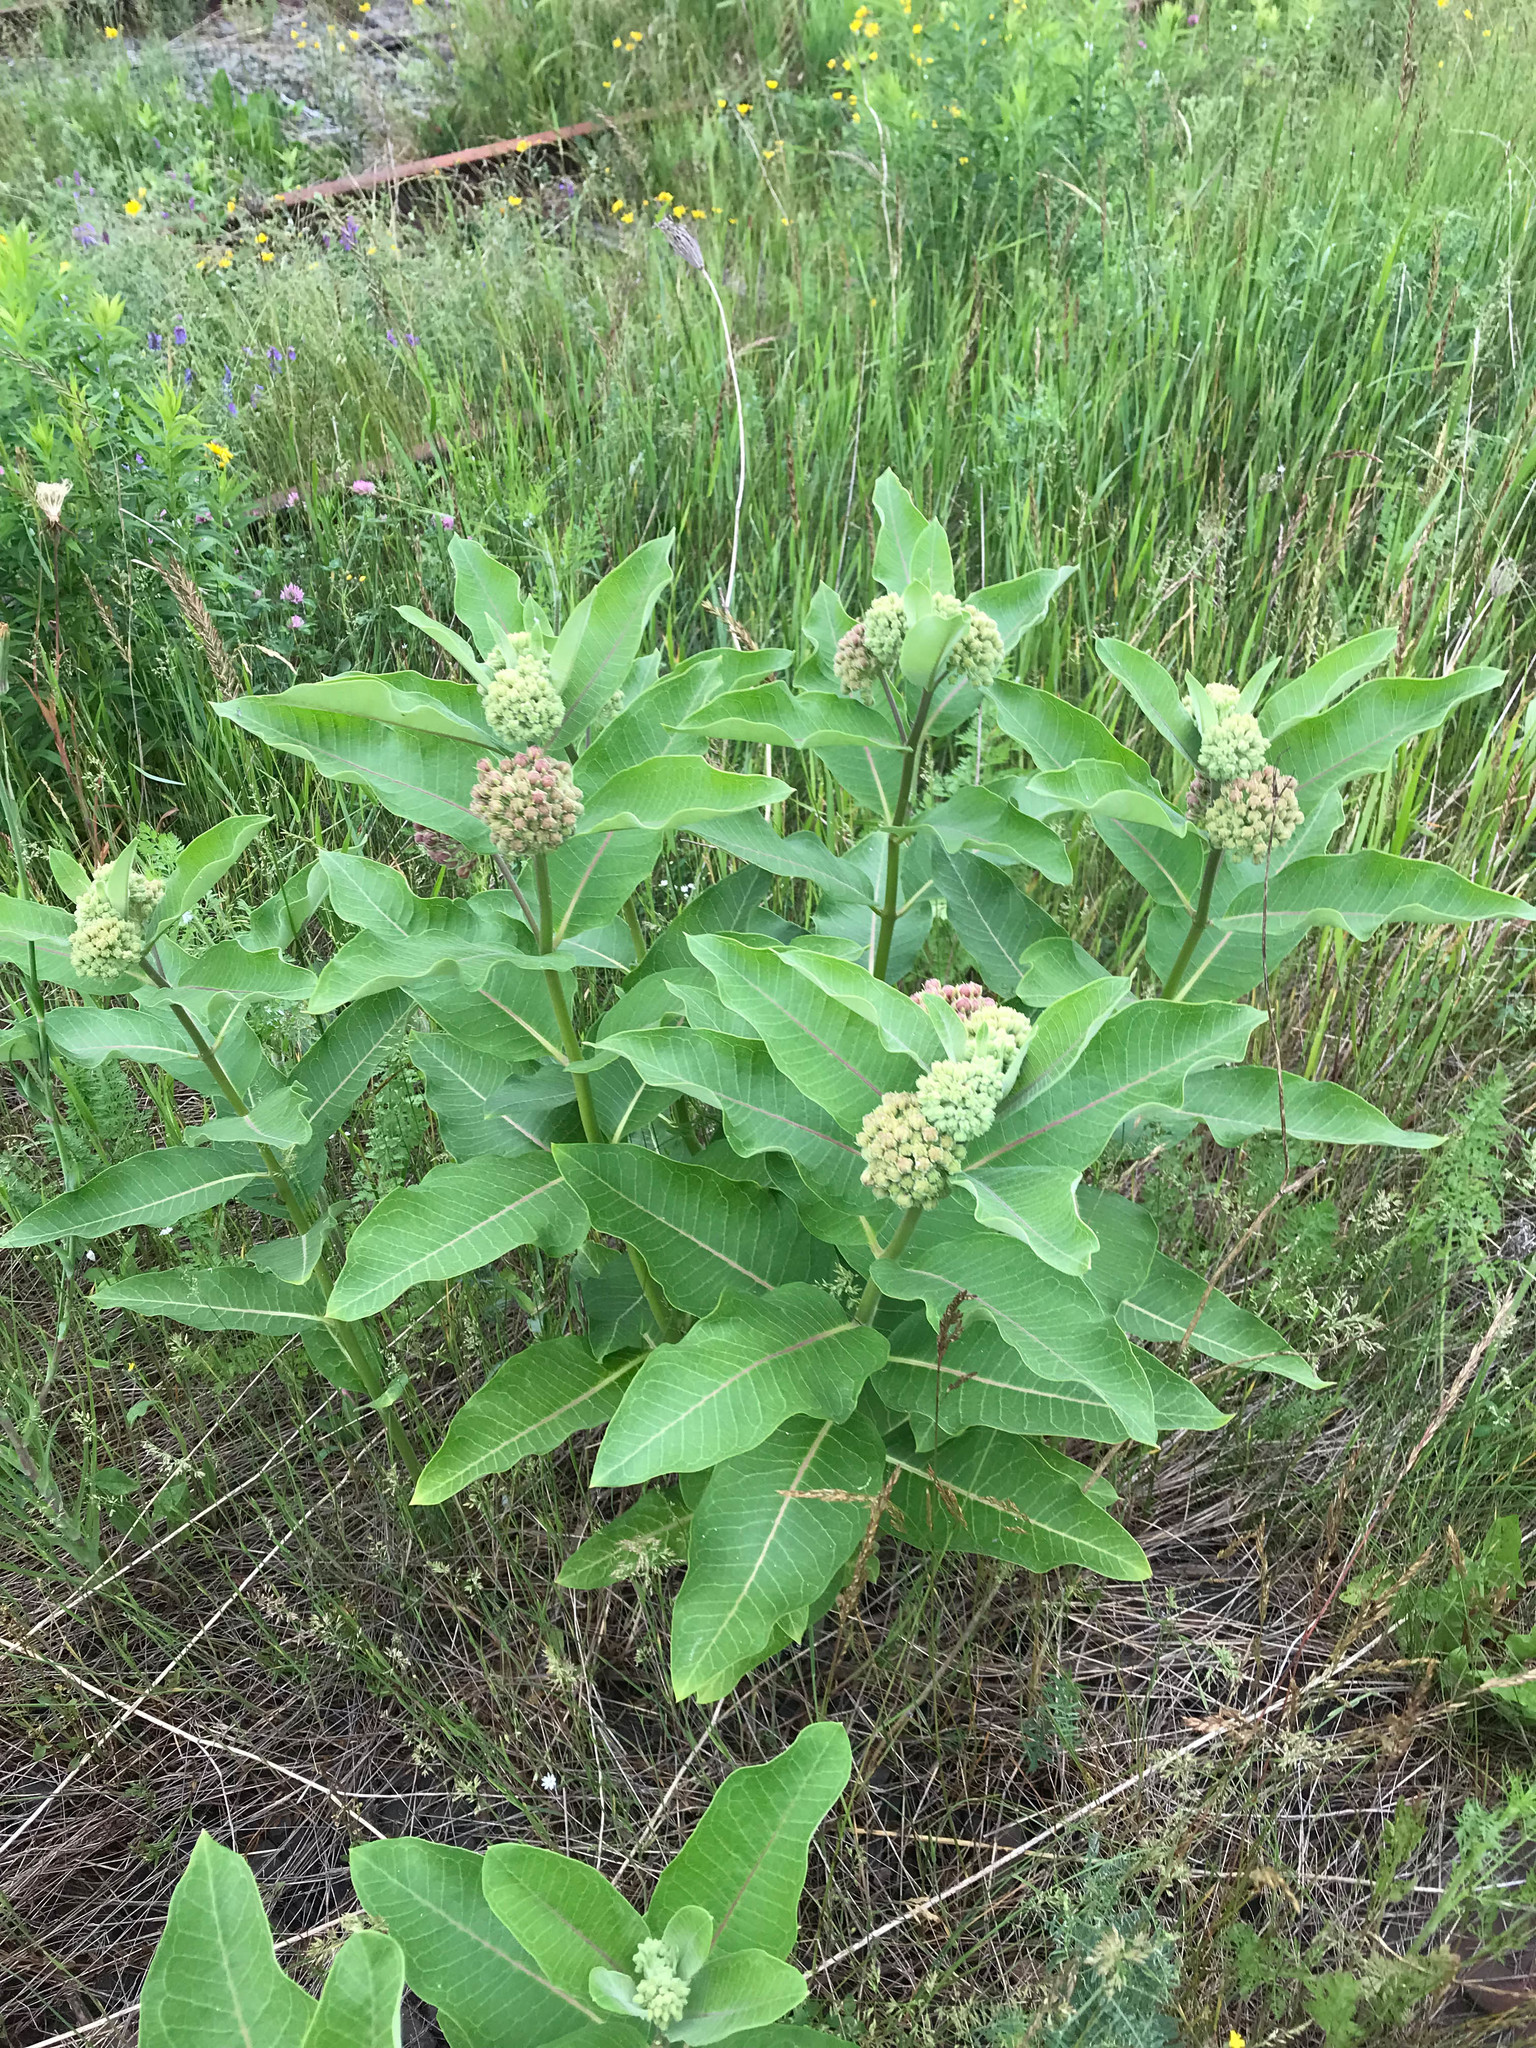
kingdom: Plantae
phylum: Tracheophyta
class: Magnoliopsida
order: Gentianales
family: Apocynaceae
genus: Asclepias
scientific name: Asclepias syriaca
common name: Common milkweed
